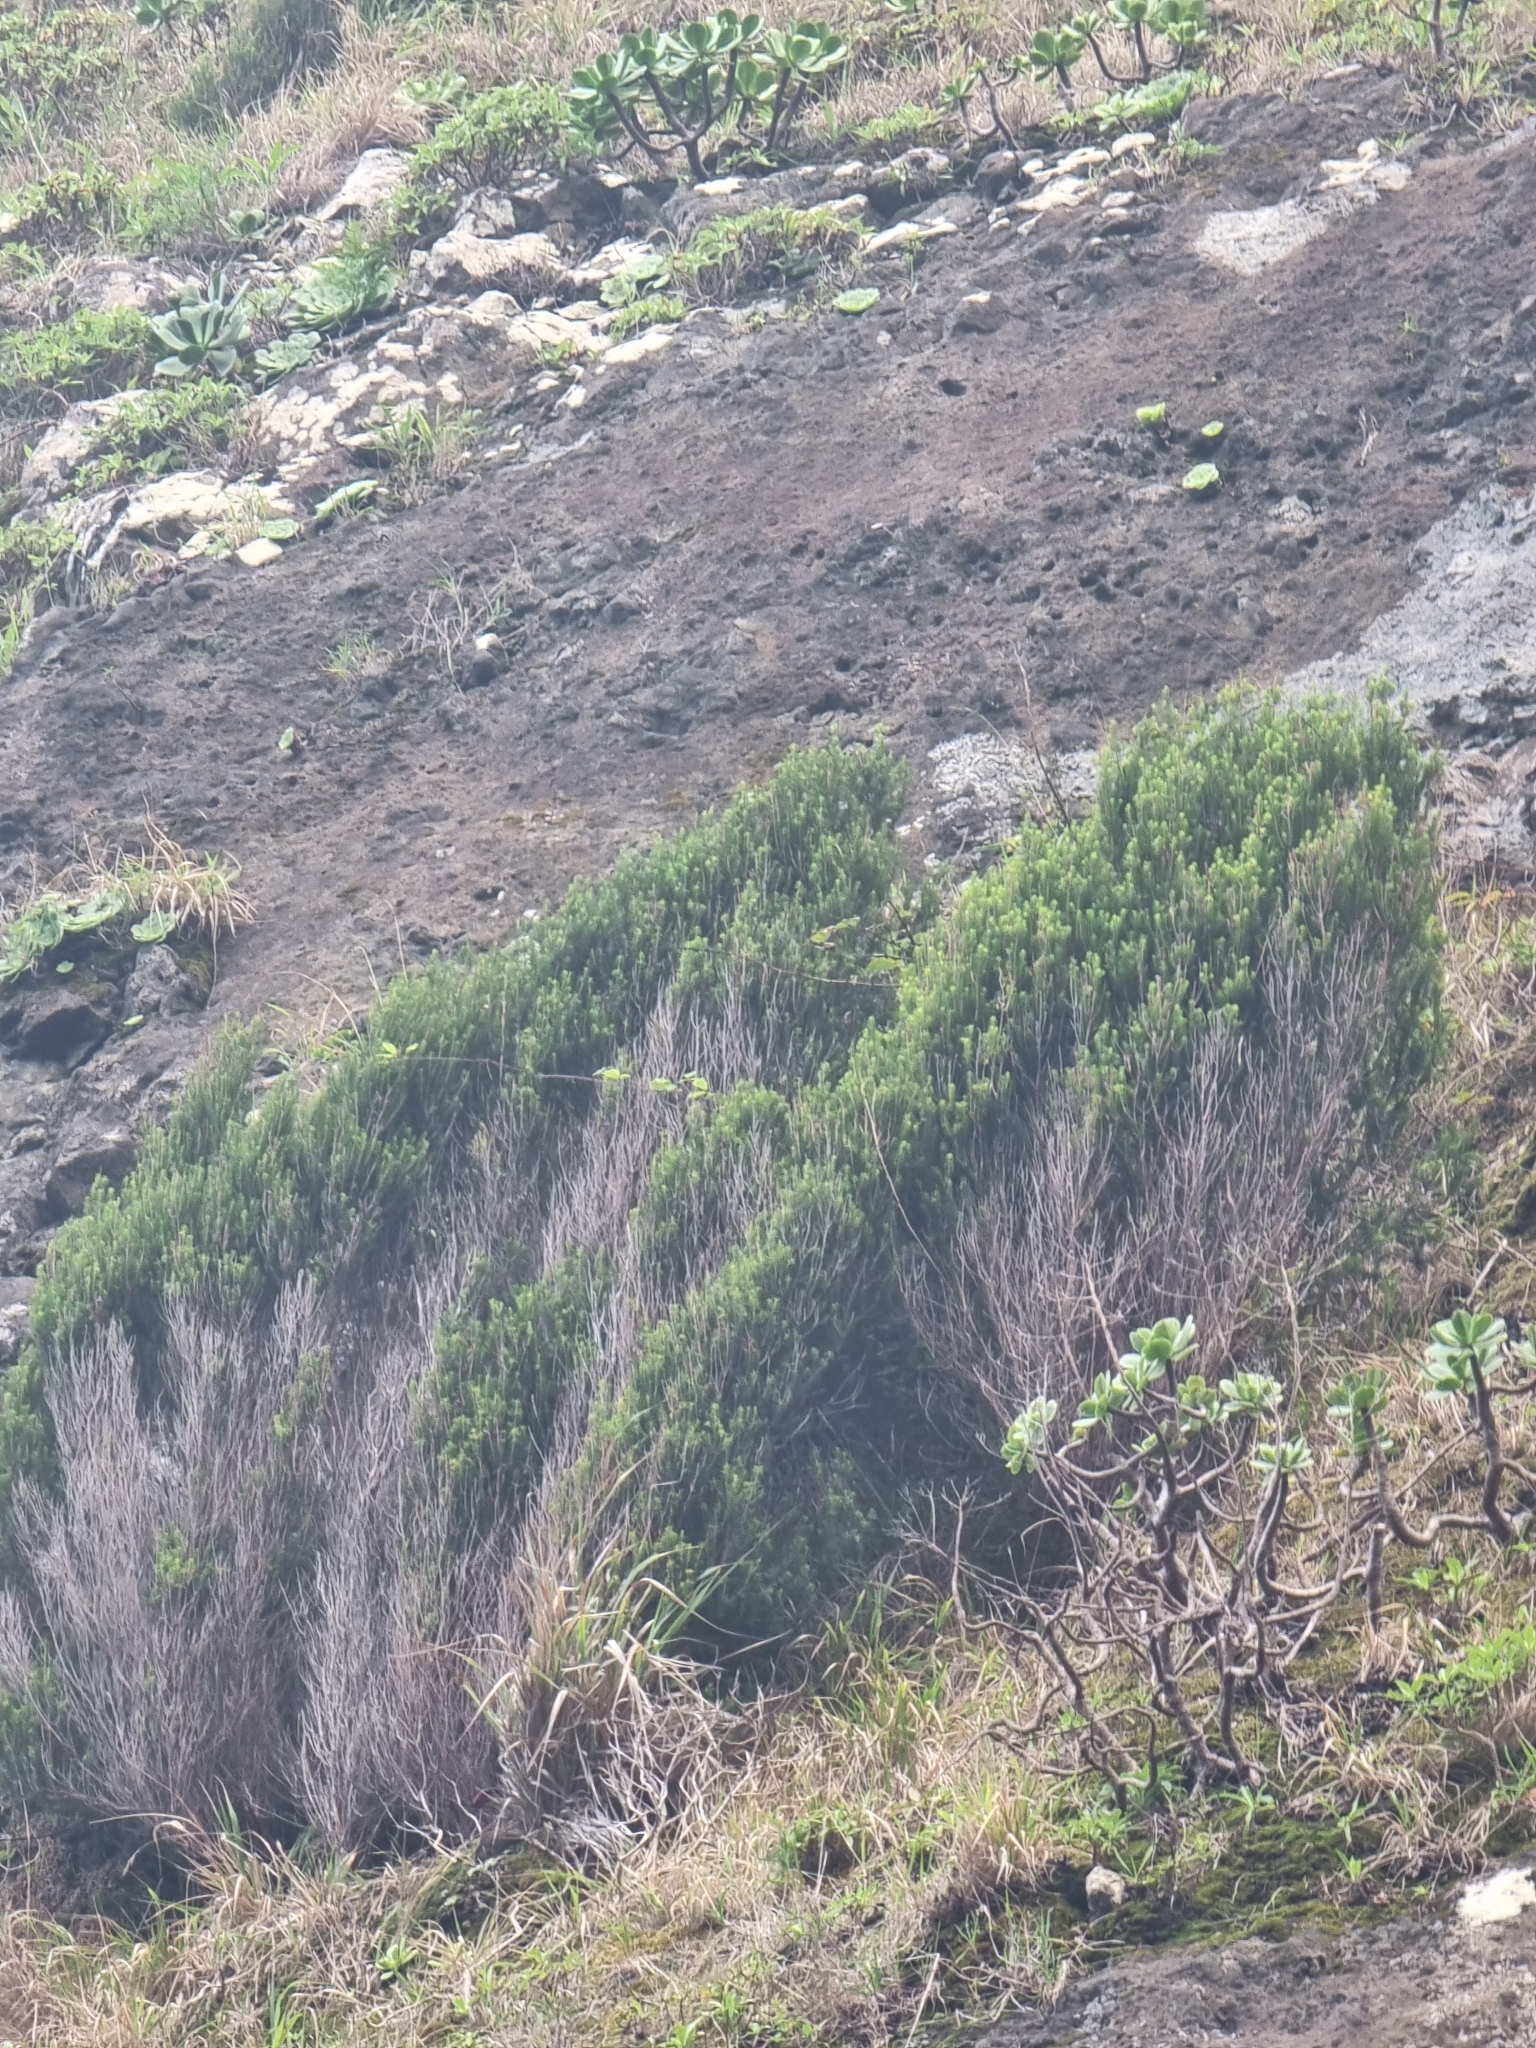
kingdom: Plantae
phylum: Tracheophyta
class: Magnoliopsida
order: Ericales
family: Ericaceae
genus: Erica
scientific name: Erica platycodon
